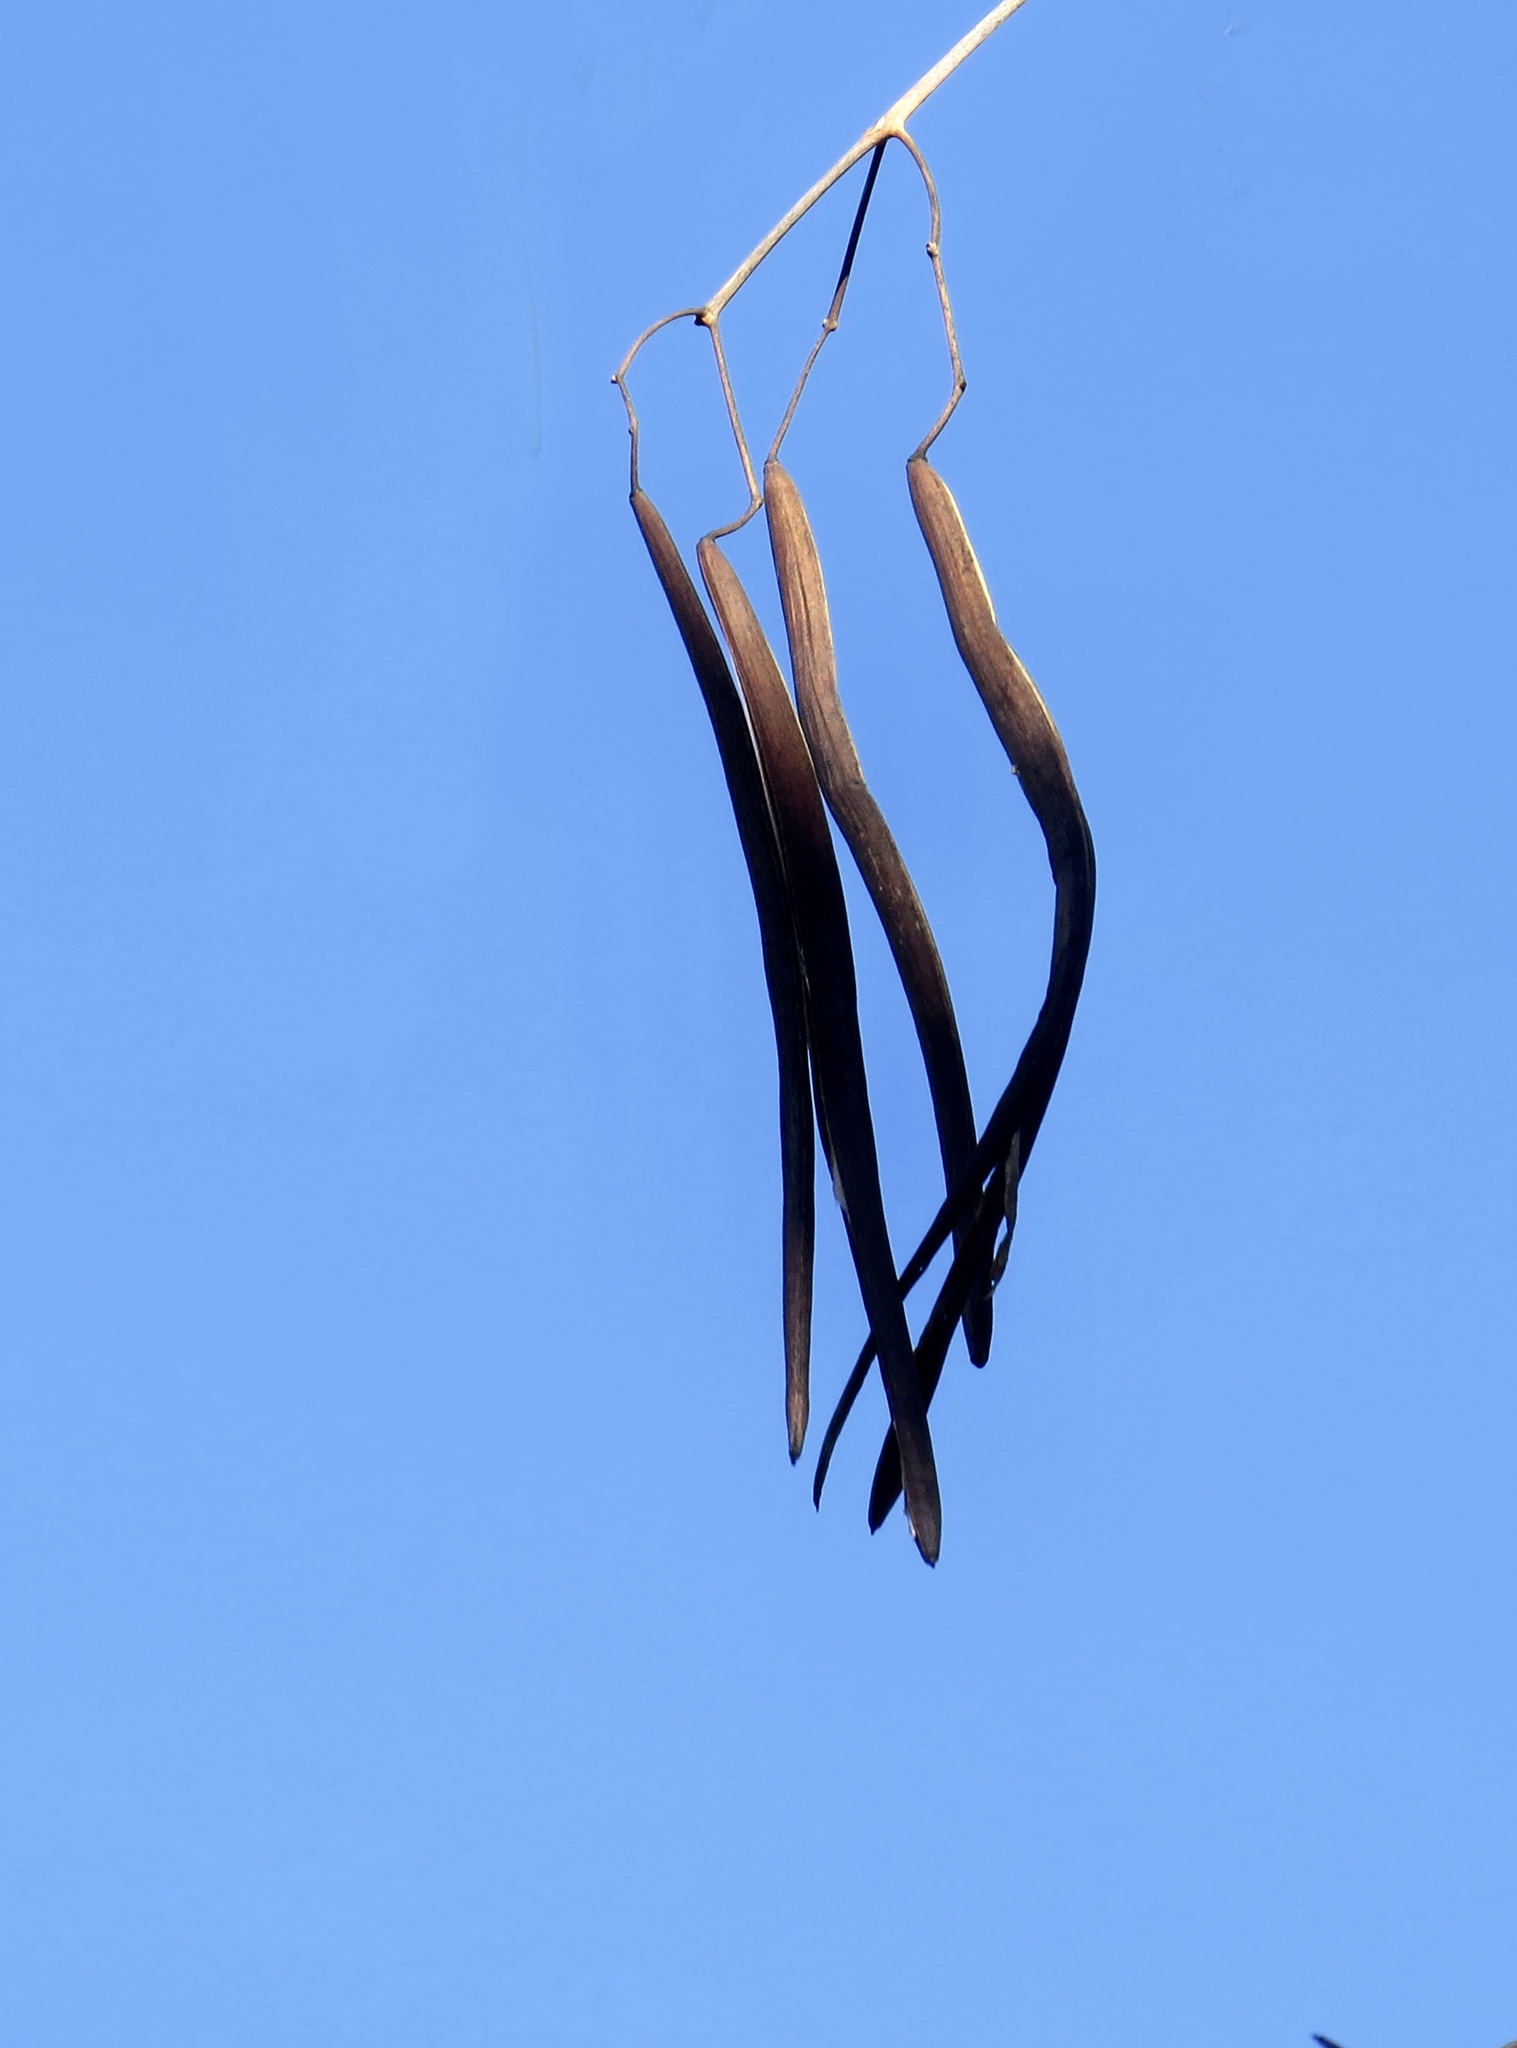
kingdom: Plantae
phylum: Tracheophyta
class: Magnoliopsida
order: Lamiales
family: Bignoniaceae
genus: Catalpa
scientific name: Catalpa
